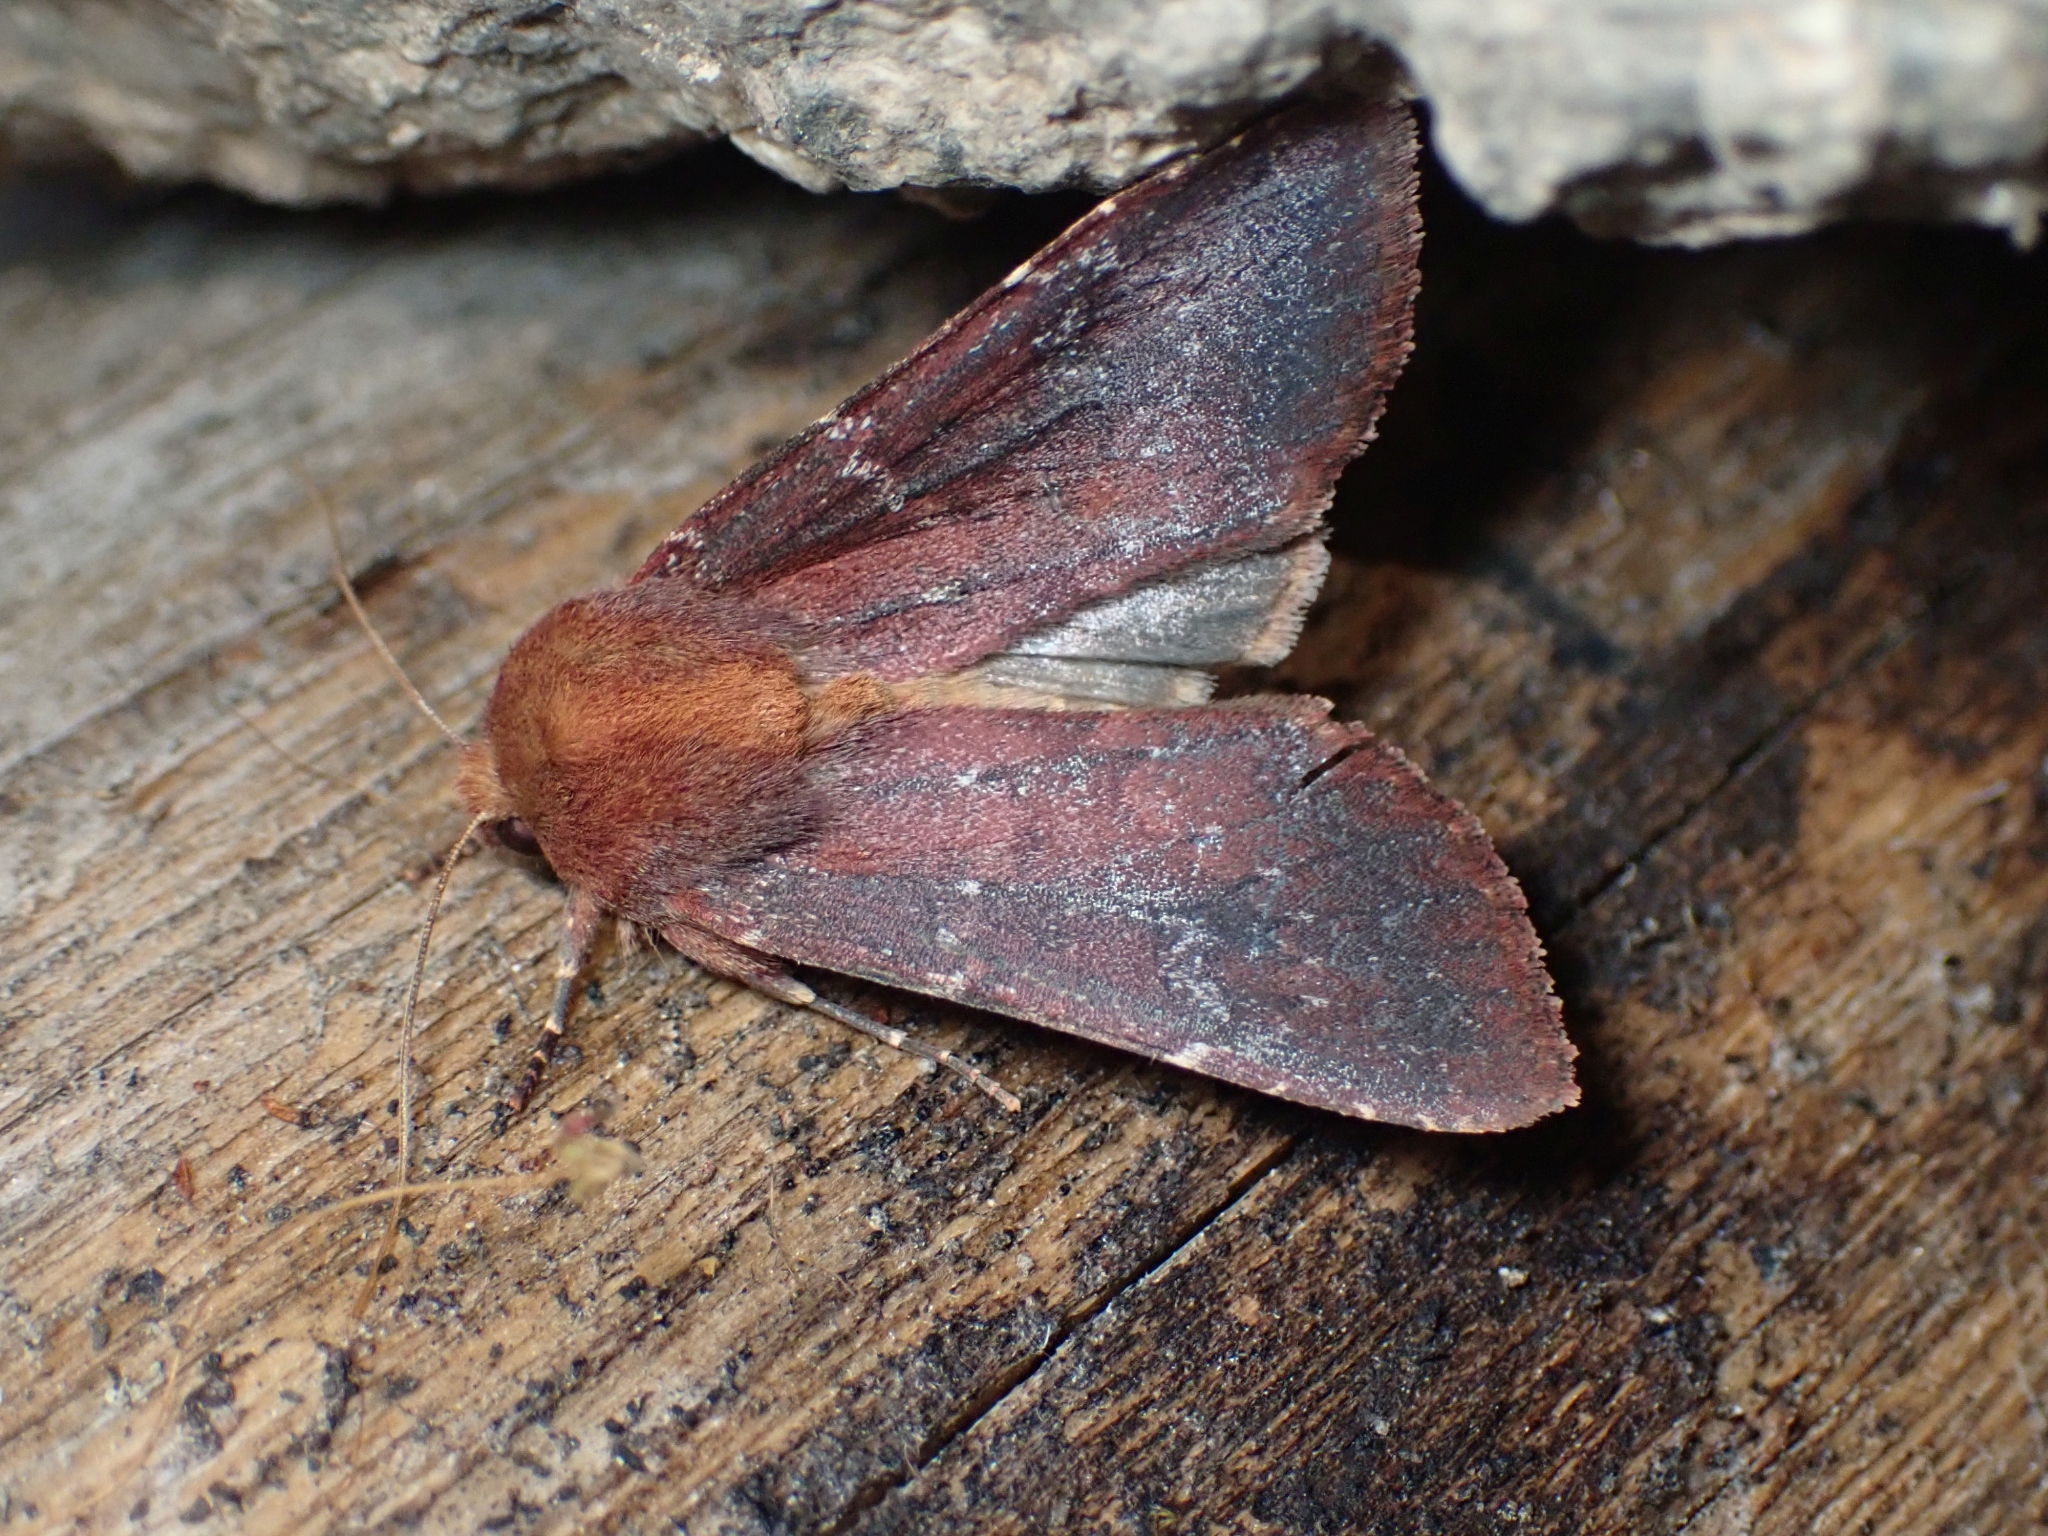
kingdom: Animalia
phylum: Arthropoda
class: Insecta
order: Lepidoptera
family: Noctuidae
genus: Sideridis
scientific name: Sideridis maryx
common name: Maroonwing moth
